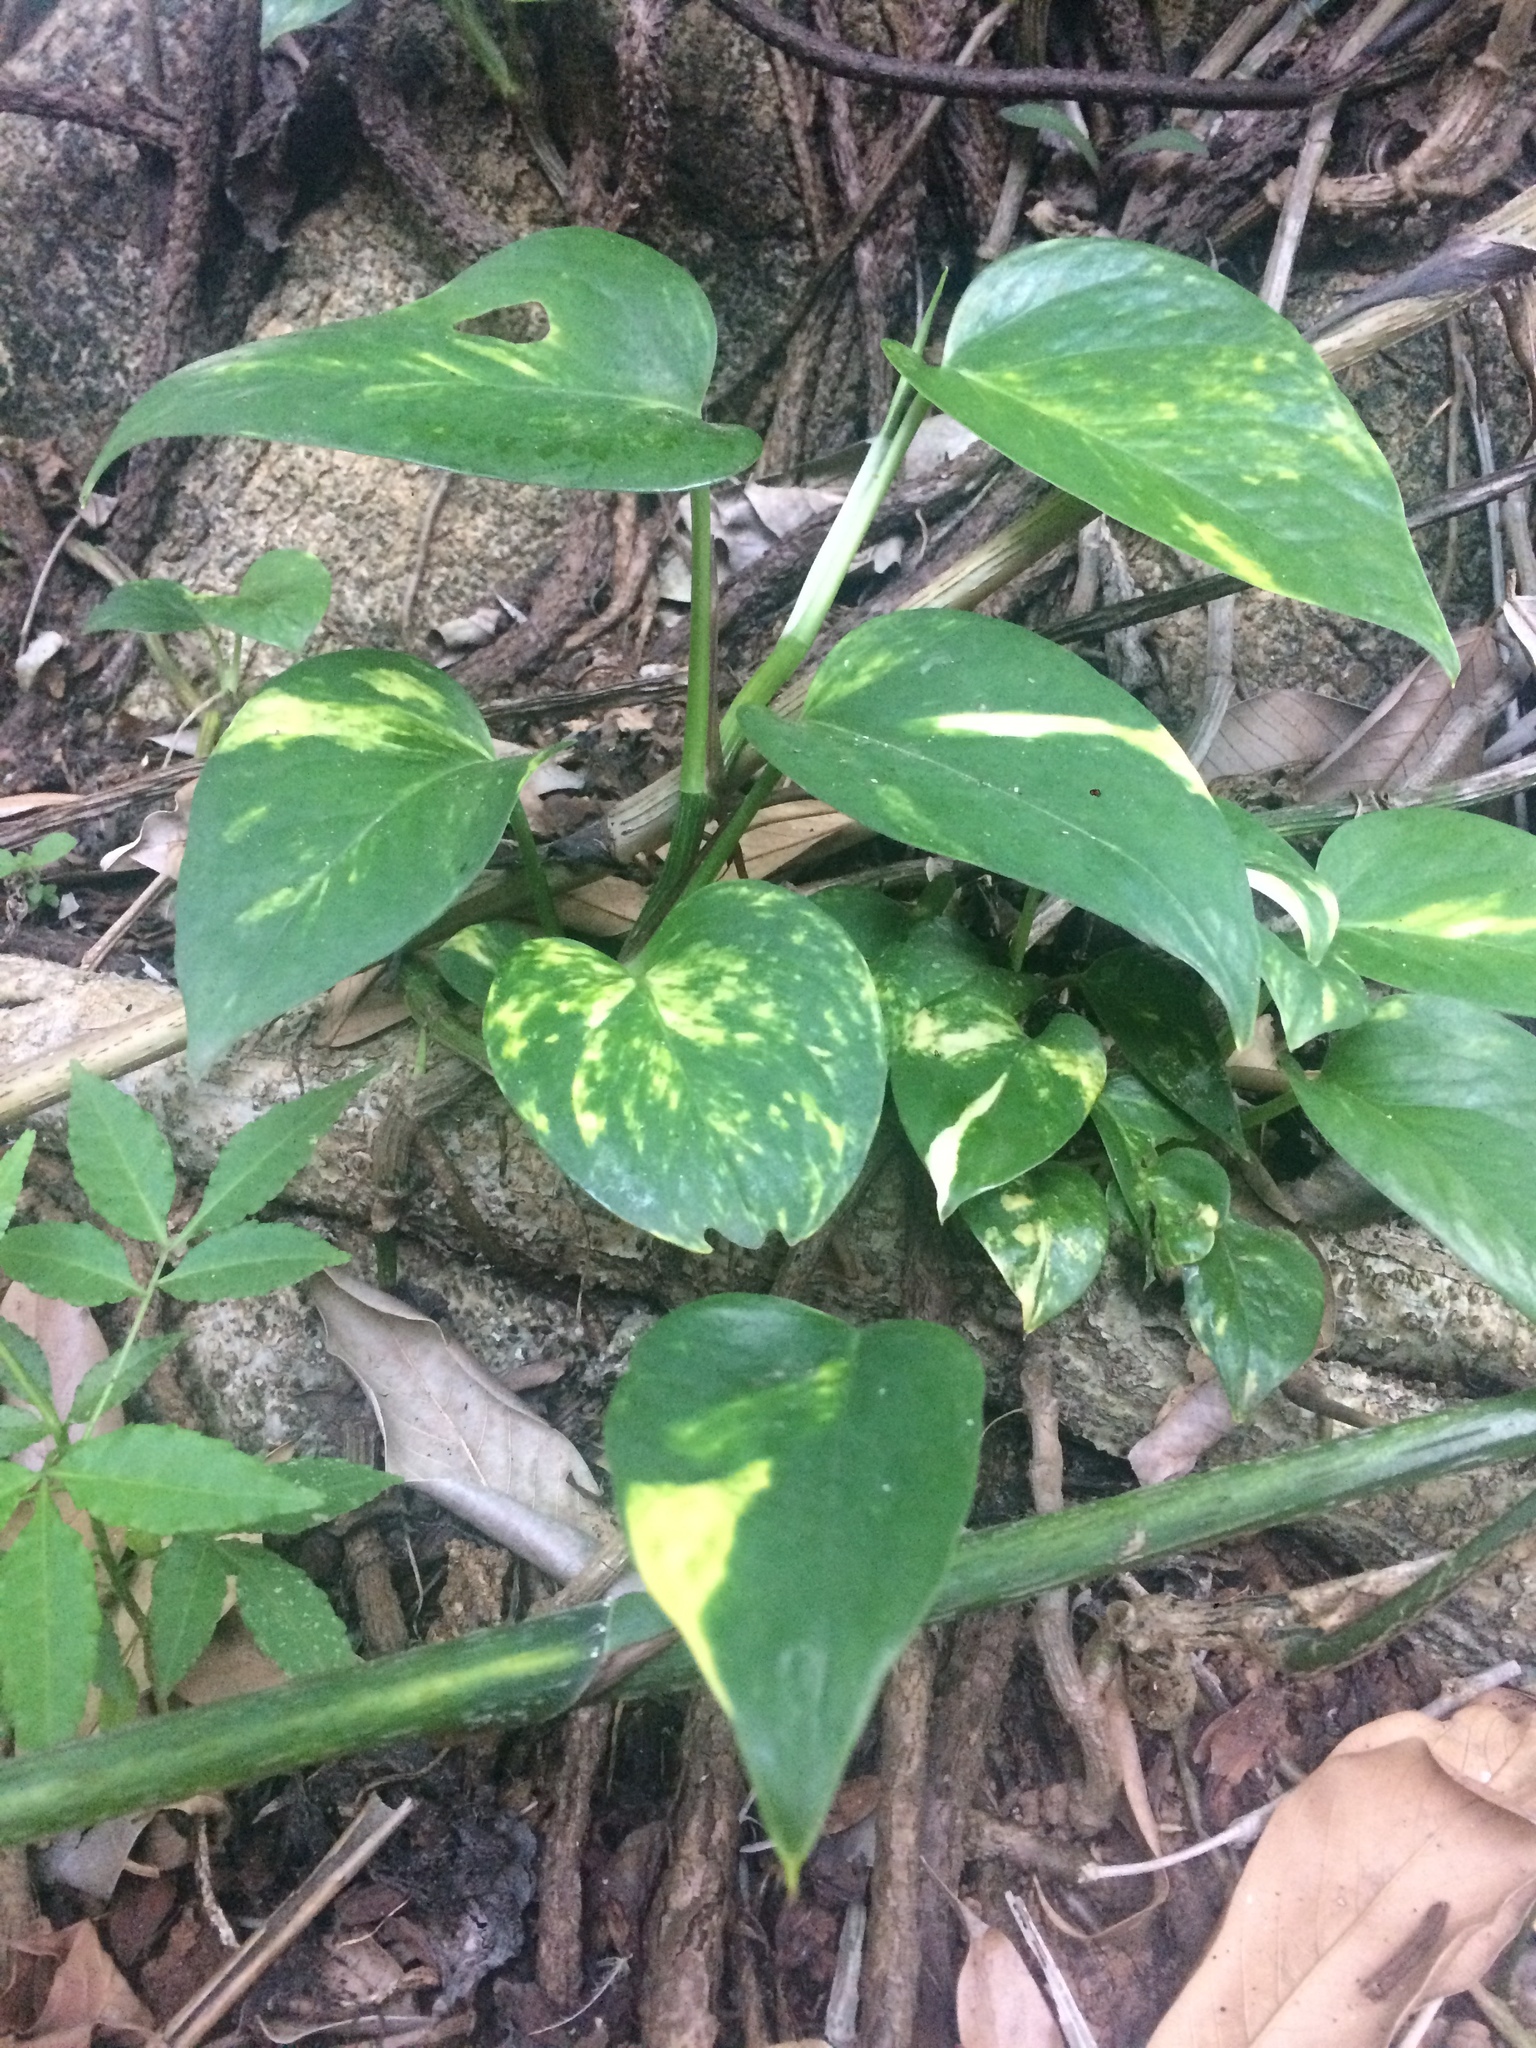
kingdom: Plantae
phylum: Tracheophyta
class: Liliopsida
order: Alismatales
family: Araceae
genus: Epipremnum
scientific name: Epipremnum aureum
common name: Golden hunter's-robe
